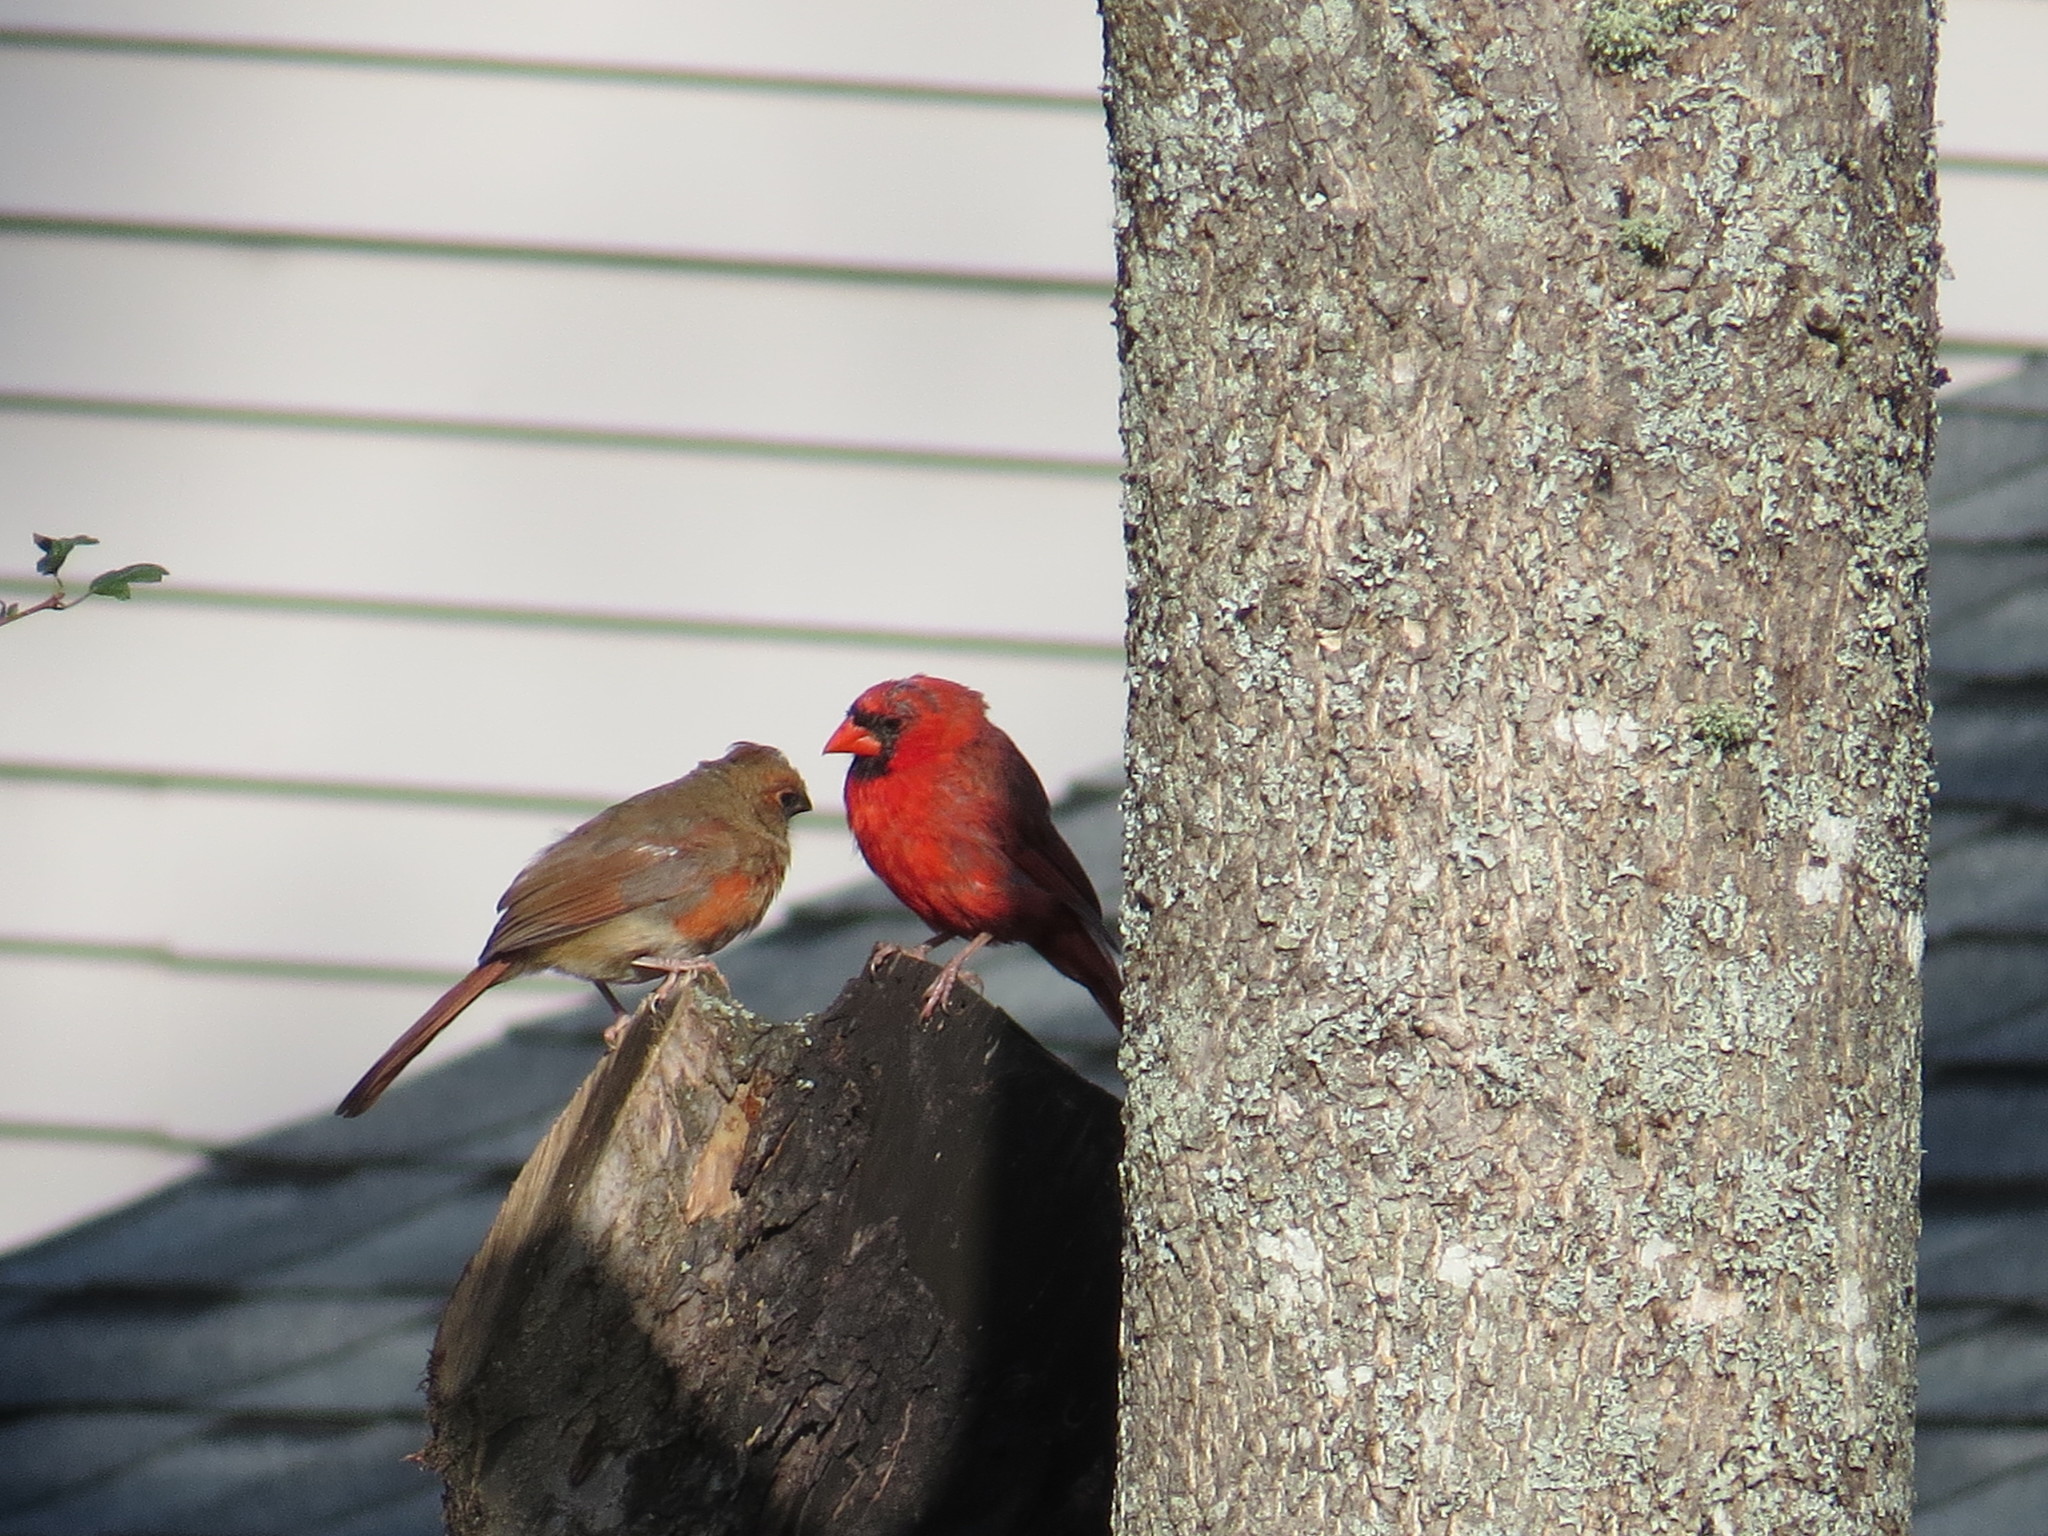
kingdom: Animalia
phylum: Chordata
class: Aves
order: Passeriformes
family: Cardinalidae
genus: Cardinalis
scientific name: Cardinalis cardinalis
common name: Northern cardinal
